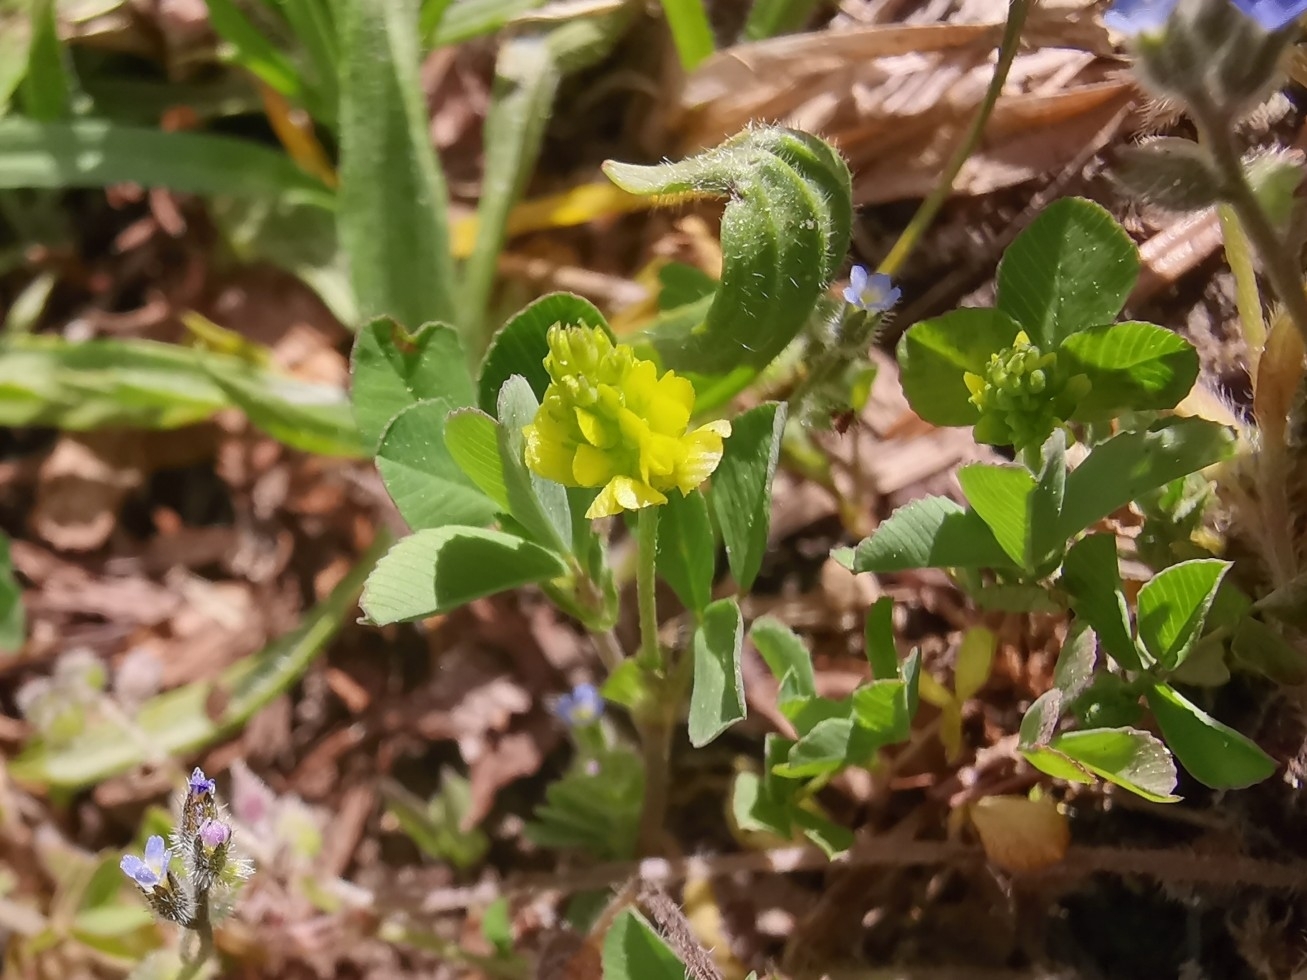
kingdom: Plantae
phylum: Tracheophyta
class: Magnoliopsida
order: Fabales
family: Fabaceae
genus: Trifolium
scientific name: Trifolium campestre
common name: Field clover
